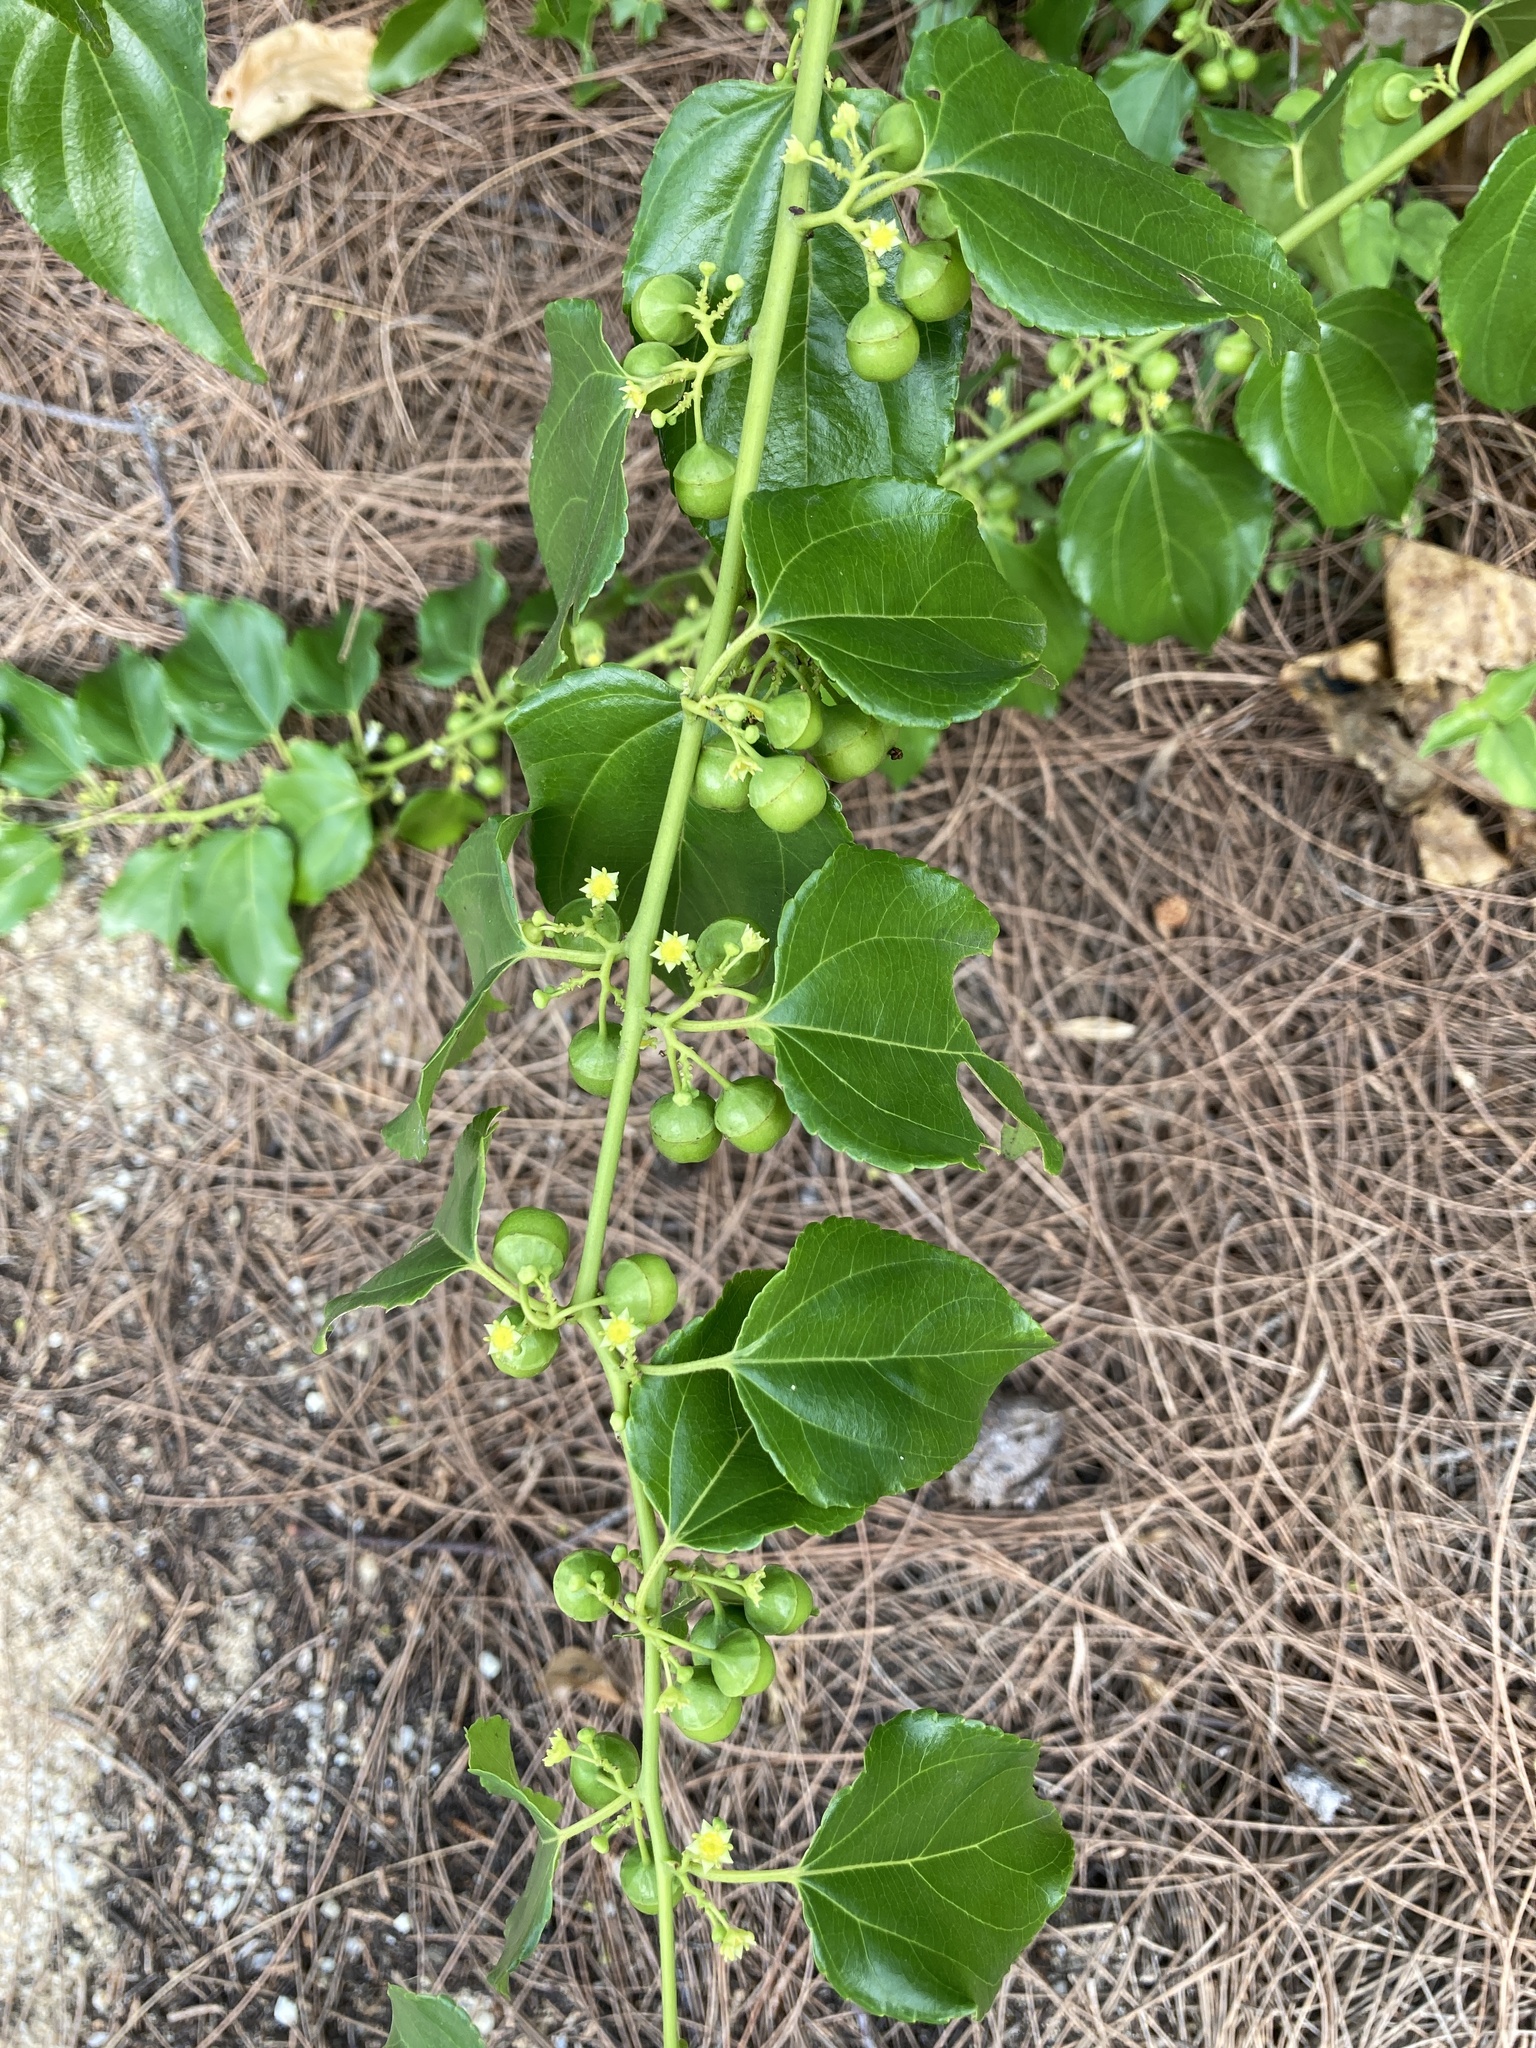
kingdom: Plantae
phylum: Tracheophyta
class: Magnoliopsida
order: Rosales
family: Rhamnaceae
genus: Colubrina
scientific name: Colubrina asiatica
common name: Asian nakedwood
